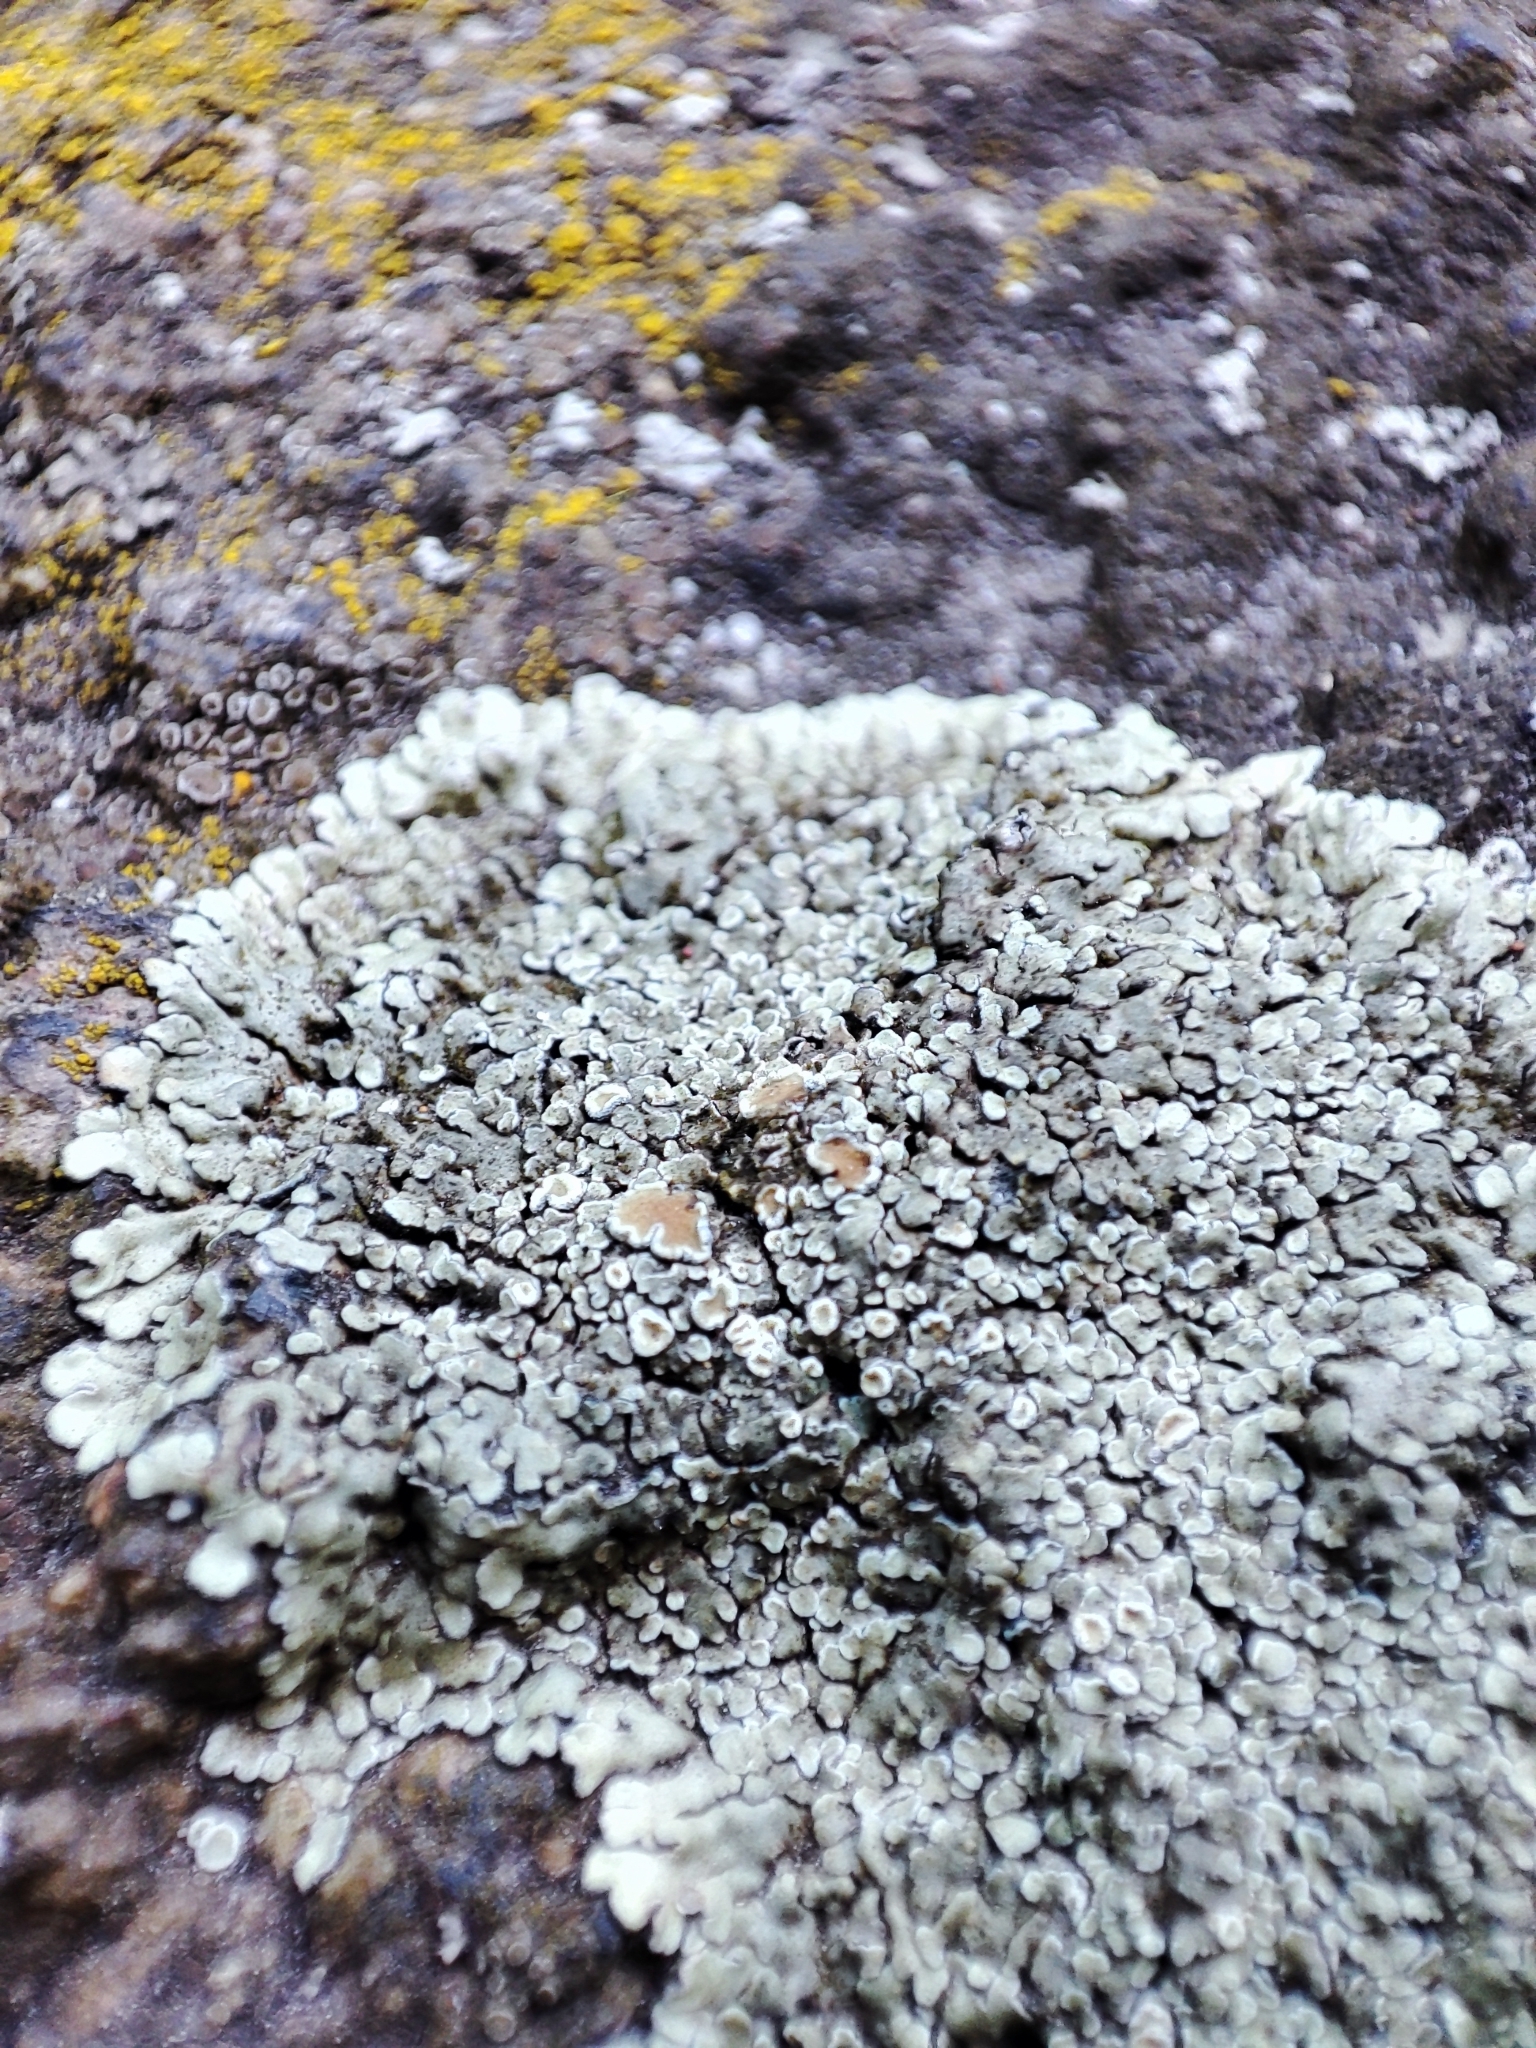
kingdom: Fungi
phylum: Ascomycota
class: Lecanoromycetes
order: Lecanorales
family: Lecanoraceae
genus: Protoparmeliopsis
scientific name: Protoparmeliopsis muralis
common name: Stonewall rim lichen
